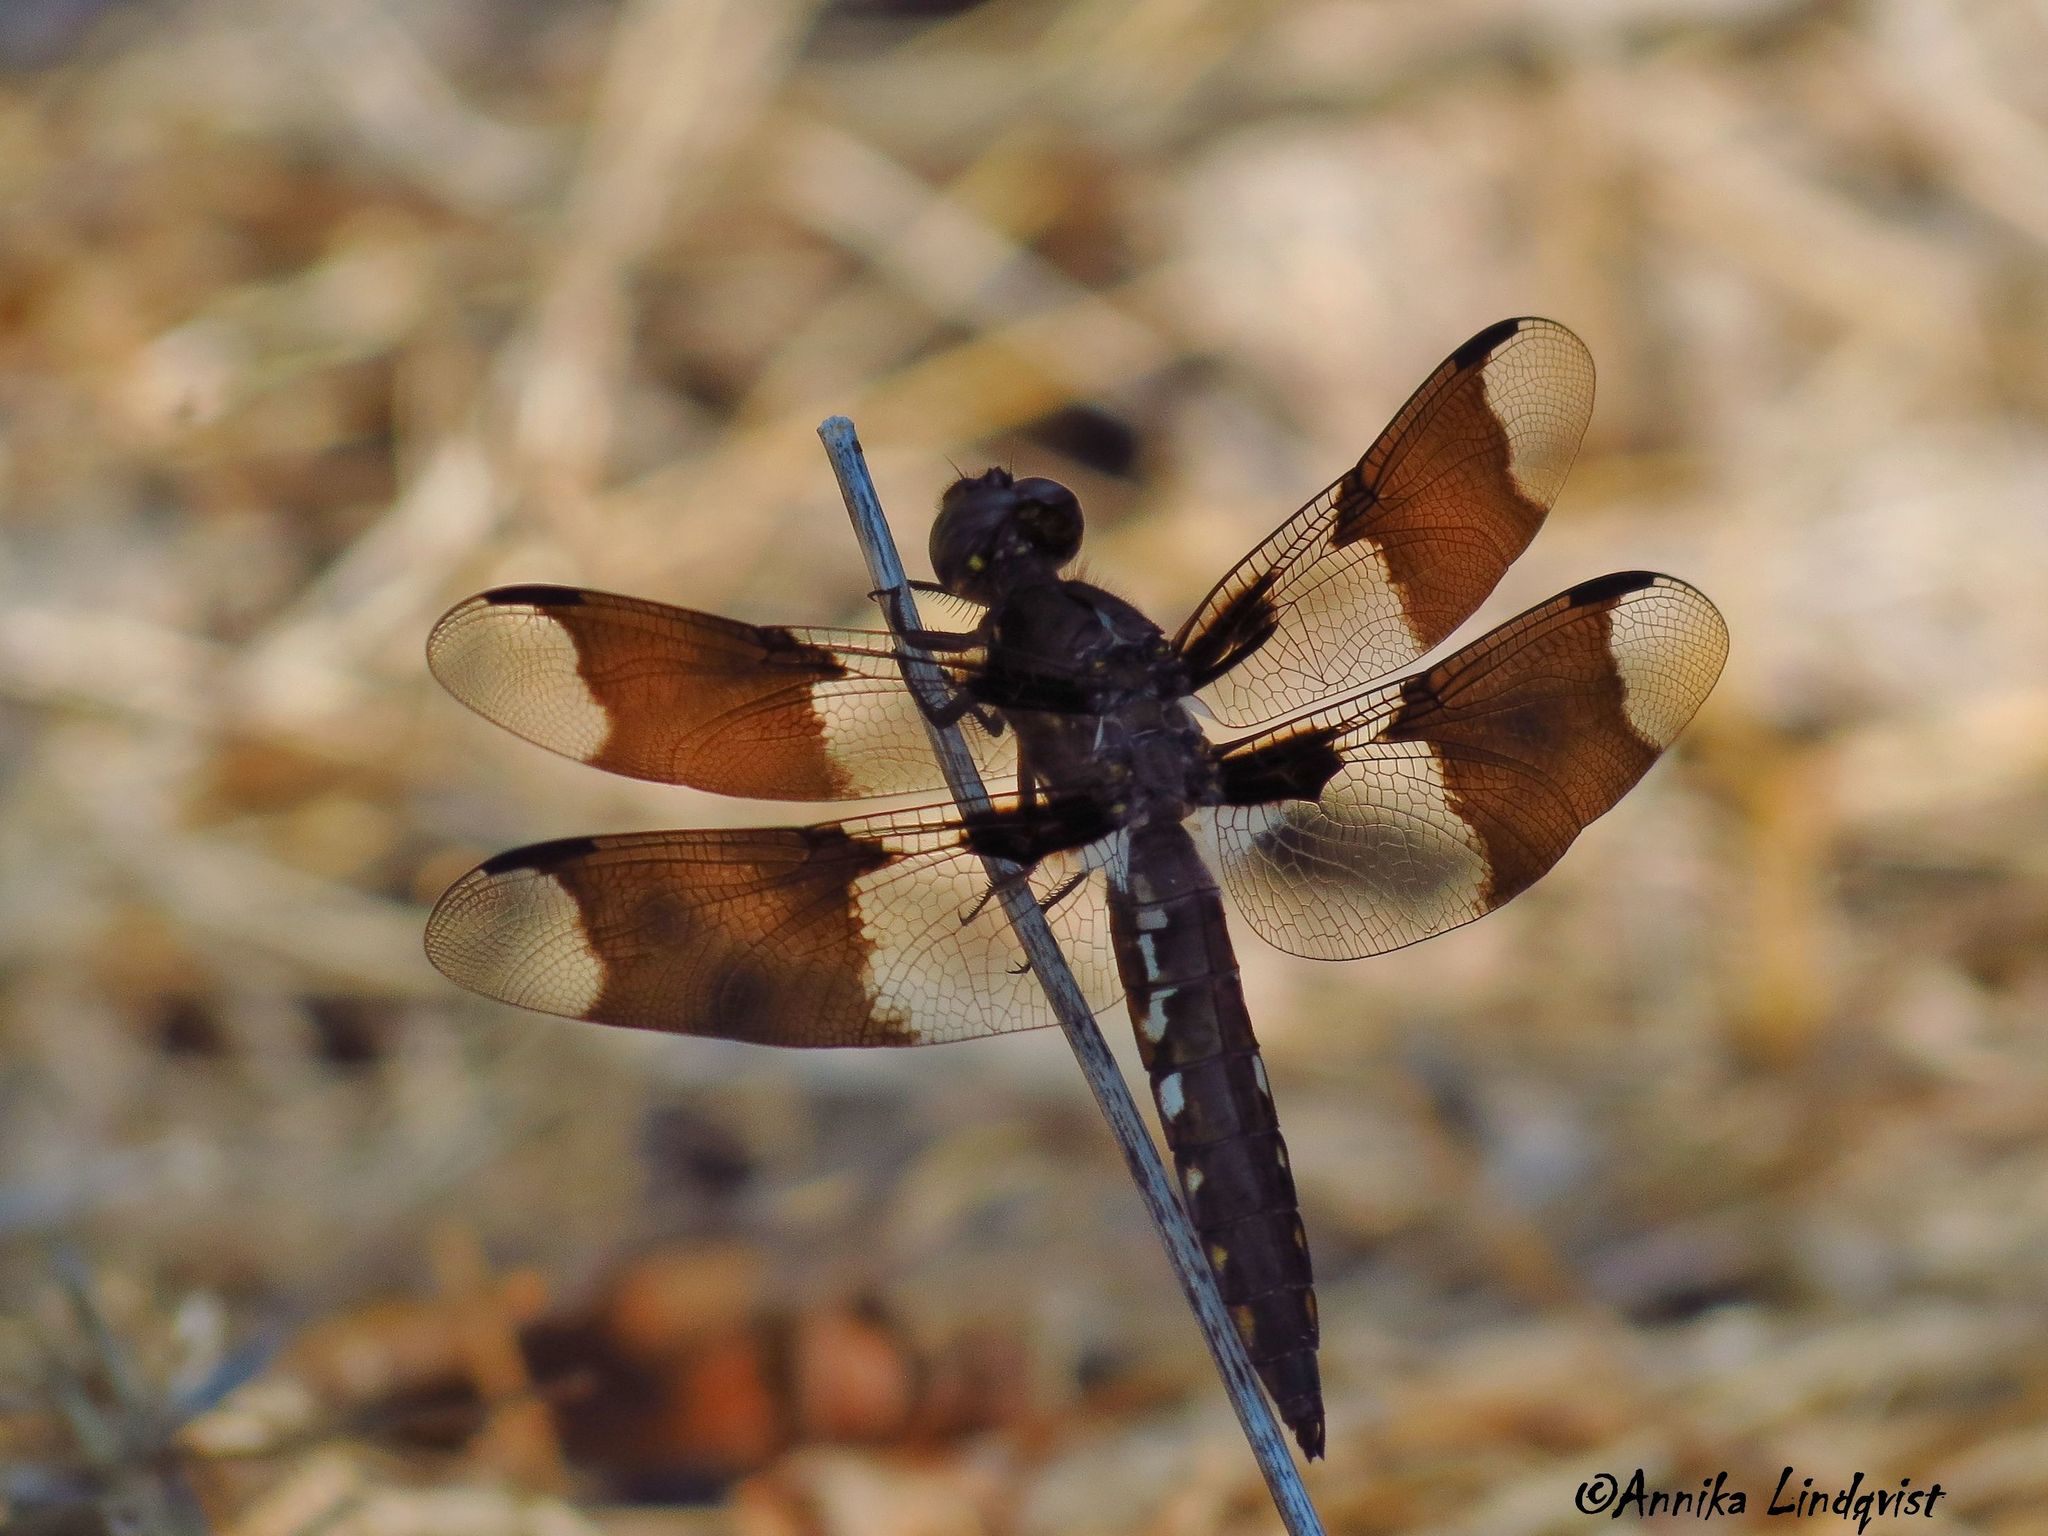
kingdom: Animalia
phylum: Arthropoda
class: Insecta
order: Odonata
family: Libellulidae
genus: Plathemis
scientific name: Plathemis lydia
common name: Common whitetail
